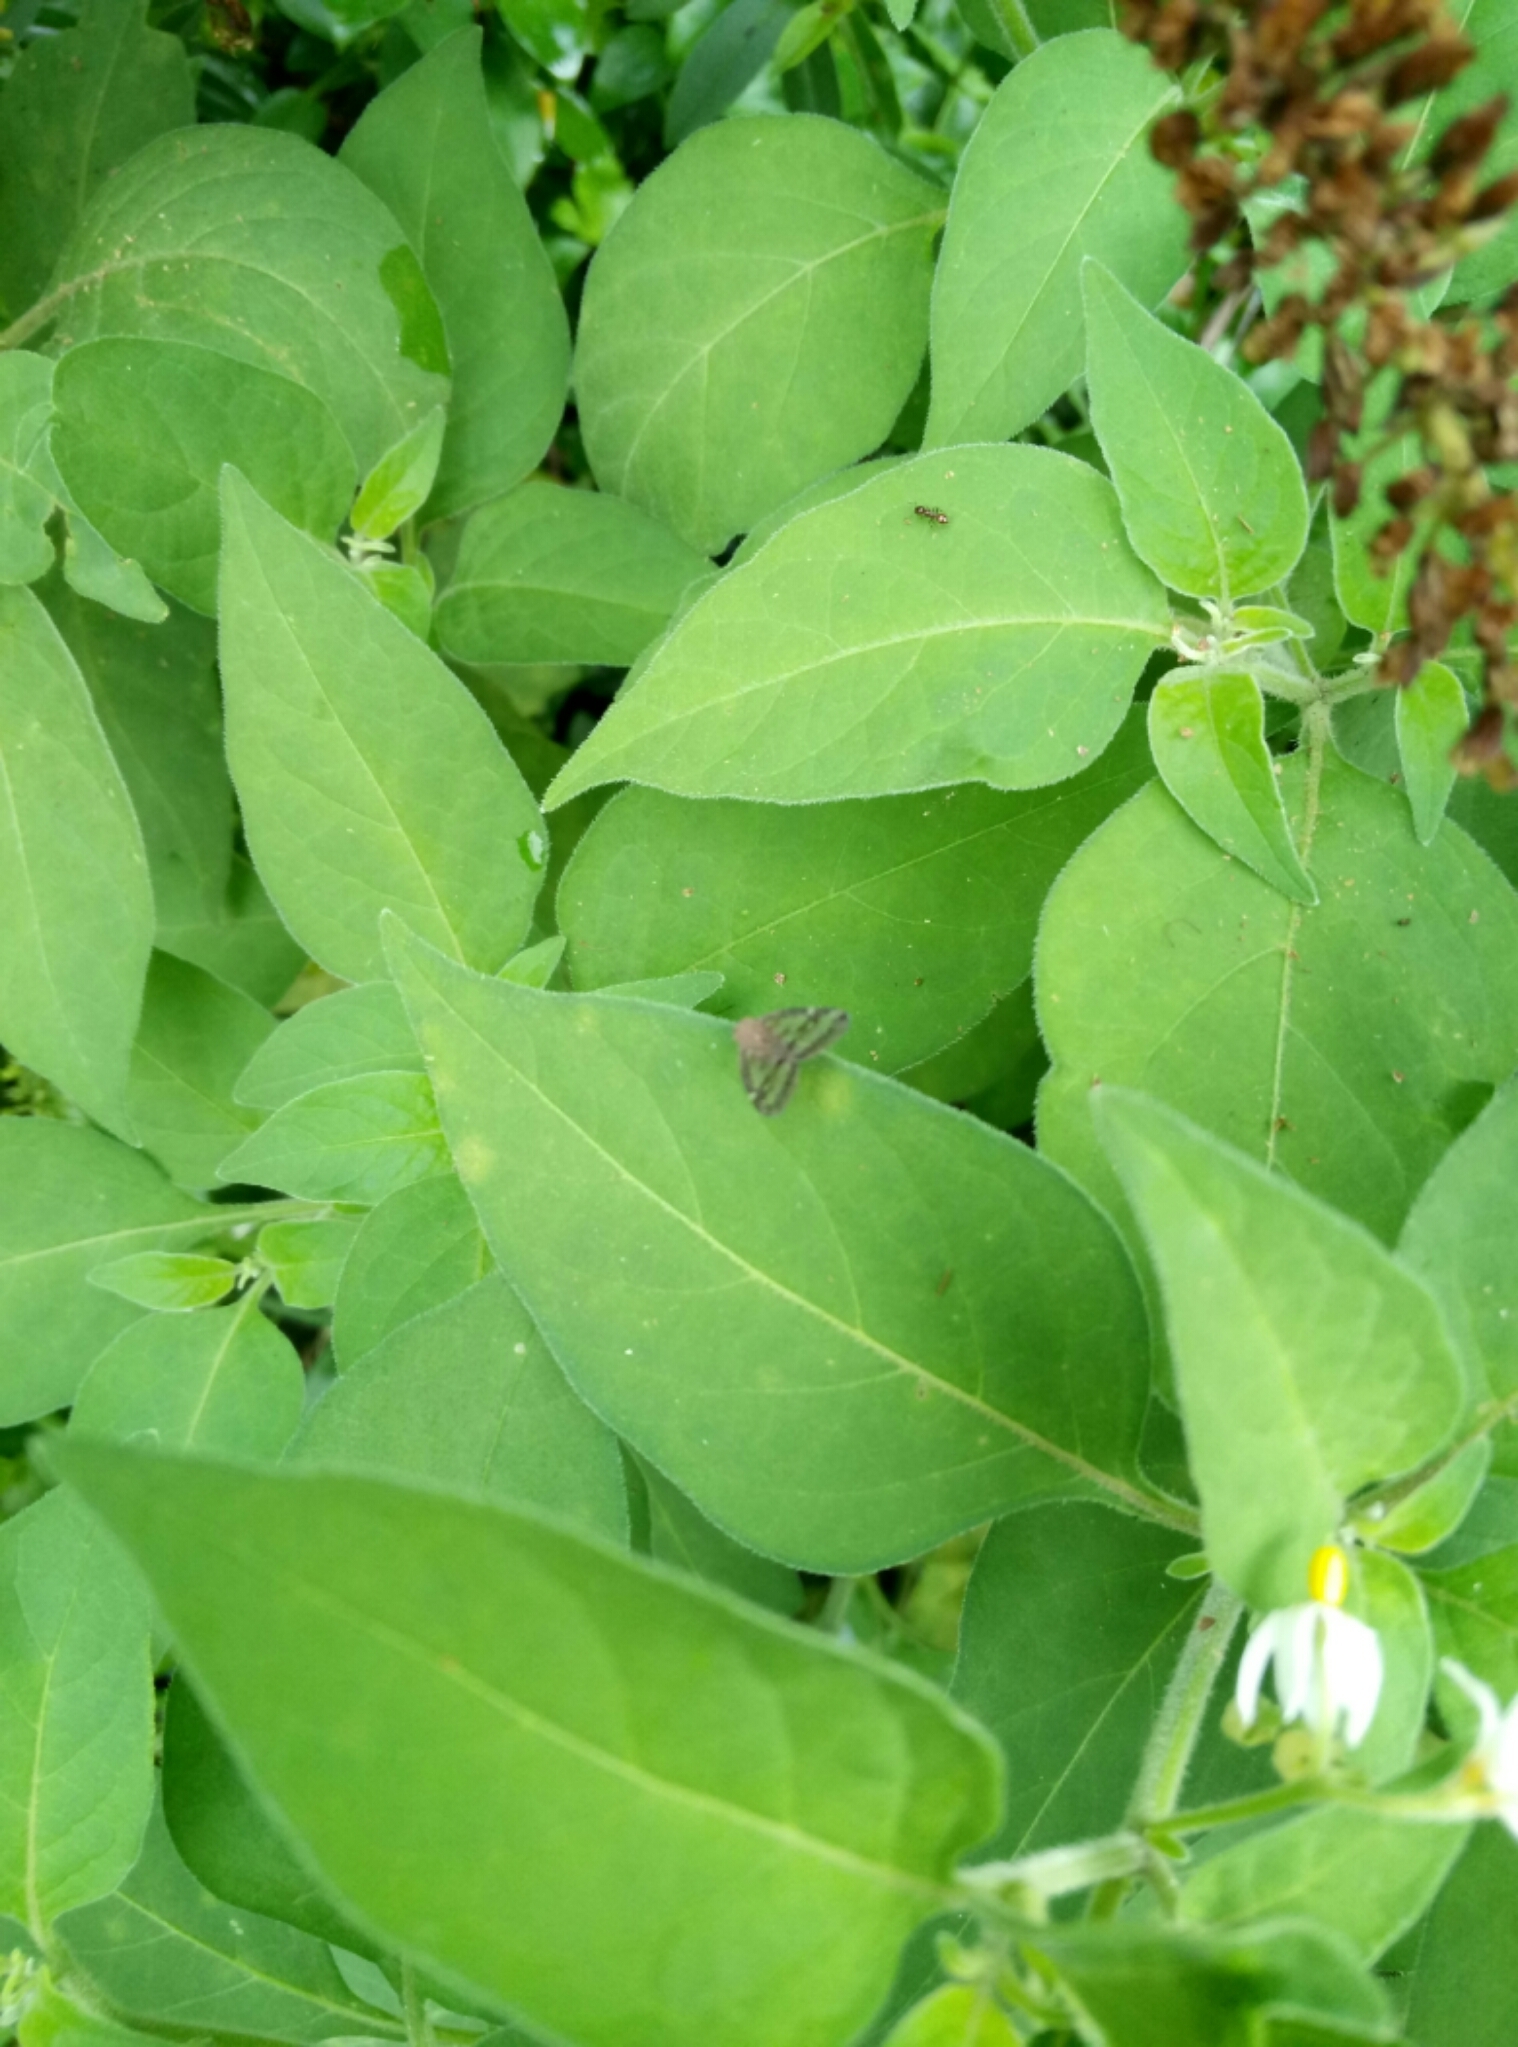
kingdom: Animalia
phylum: Arthropoda
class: Insecta
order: Hemiptera
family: Ricaniidae
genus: Scolypopa
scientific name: Scolypopa australis
